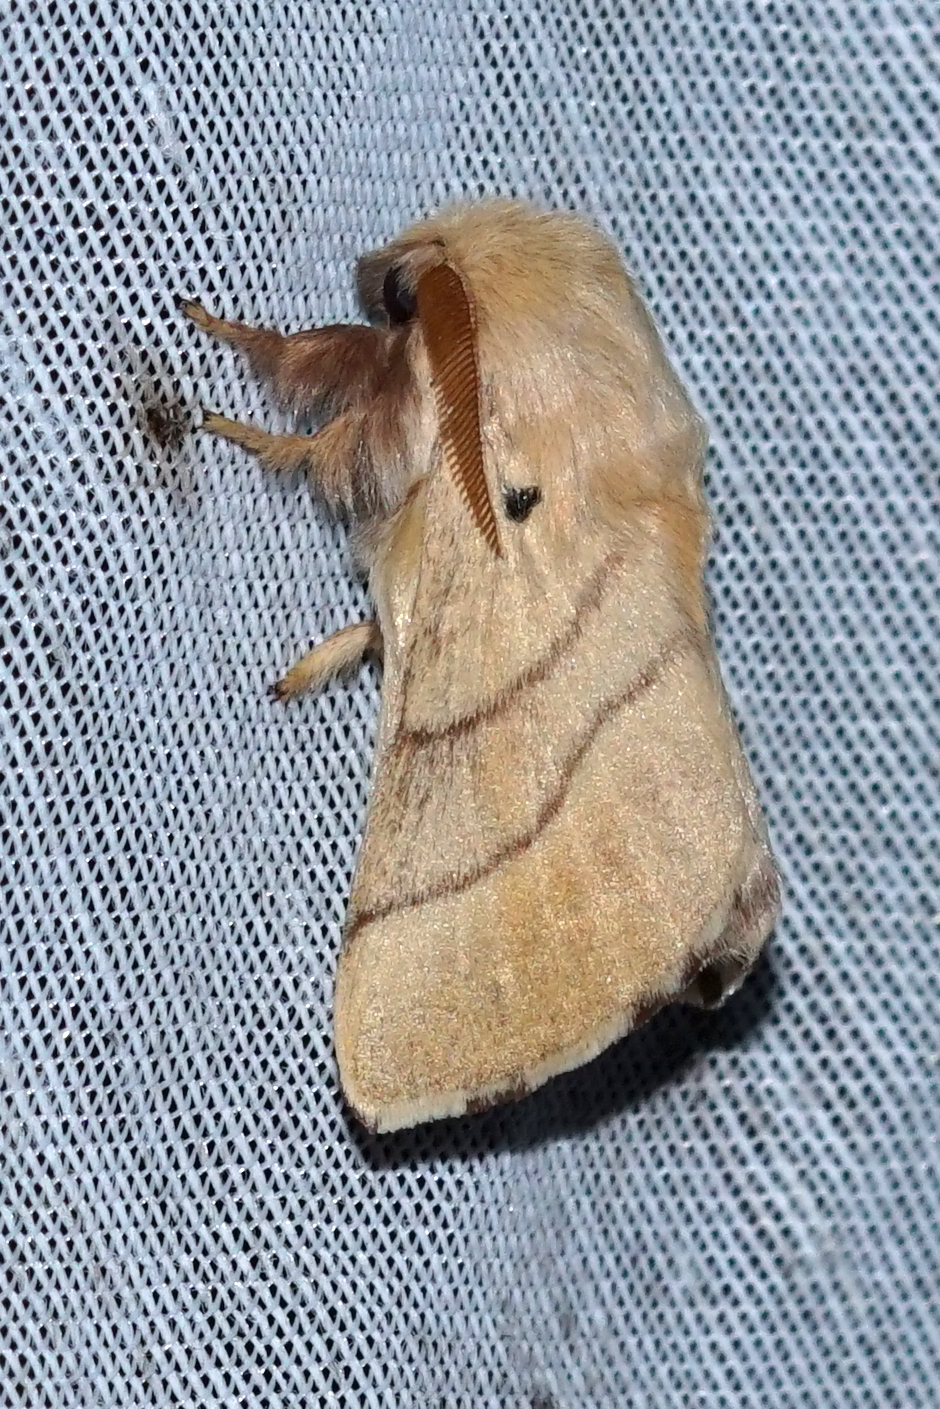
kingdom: Animalia
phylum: Arthropoda
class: Insecta
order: Lepidoptera
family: Lasiocampidae
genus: Malacosoma
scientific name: Malacosoma neustria
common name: The lackey
